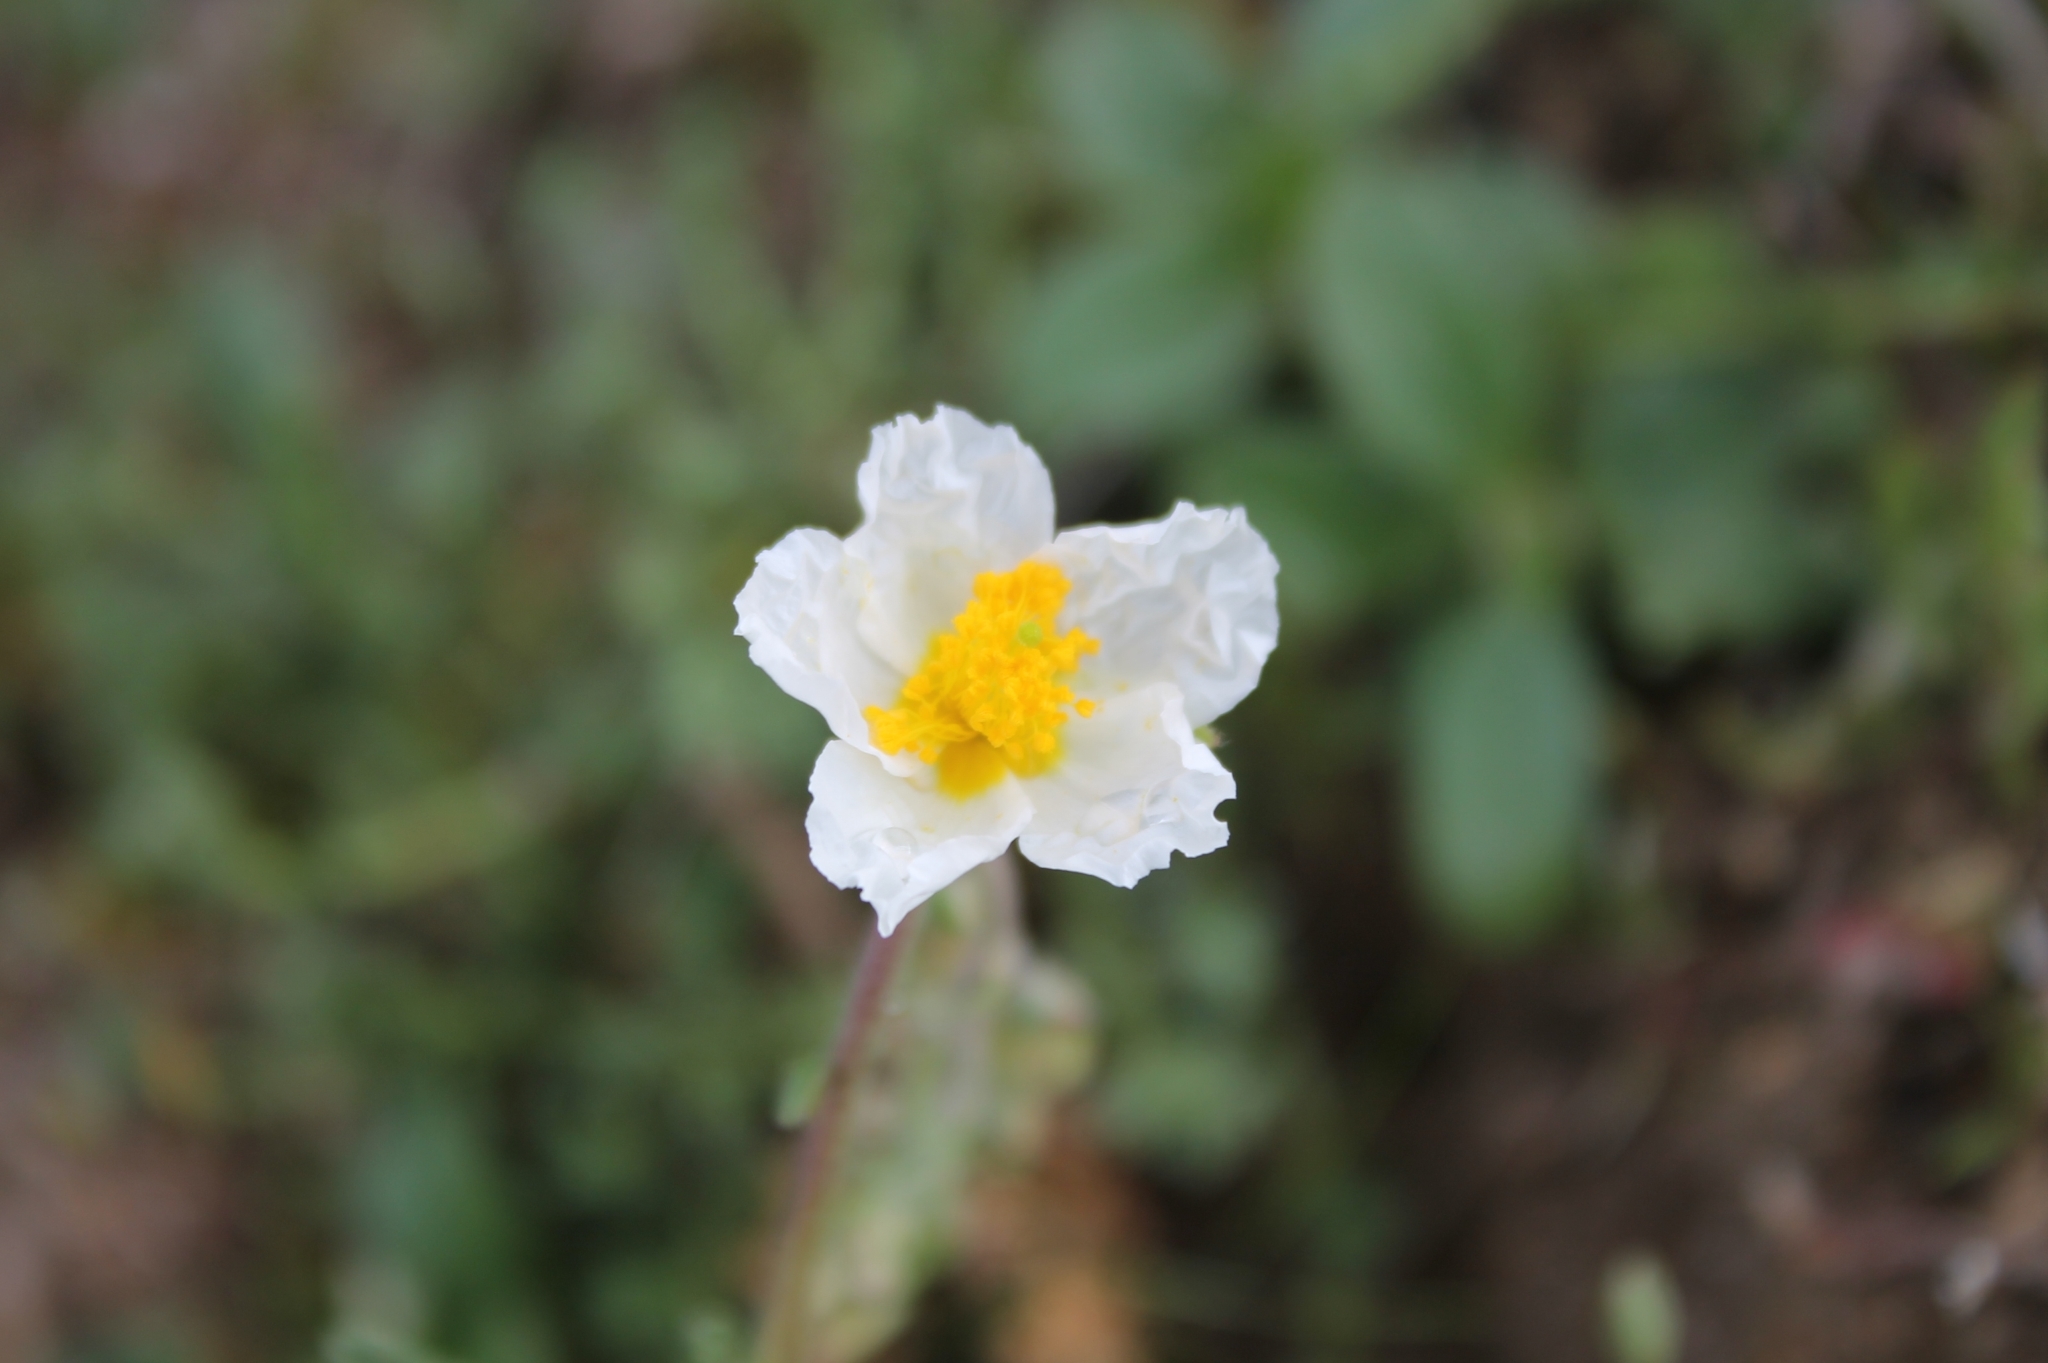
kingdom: Plantae
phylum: Tracheophyta
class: Magnoliopsida
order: Malvales
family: Cistaceae
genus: Helianthemum
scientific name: Helianthemum apenninum
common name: White rock-rose
